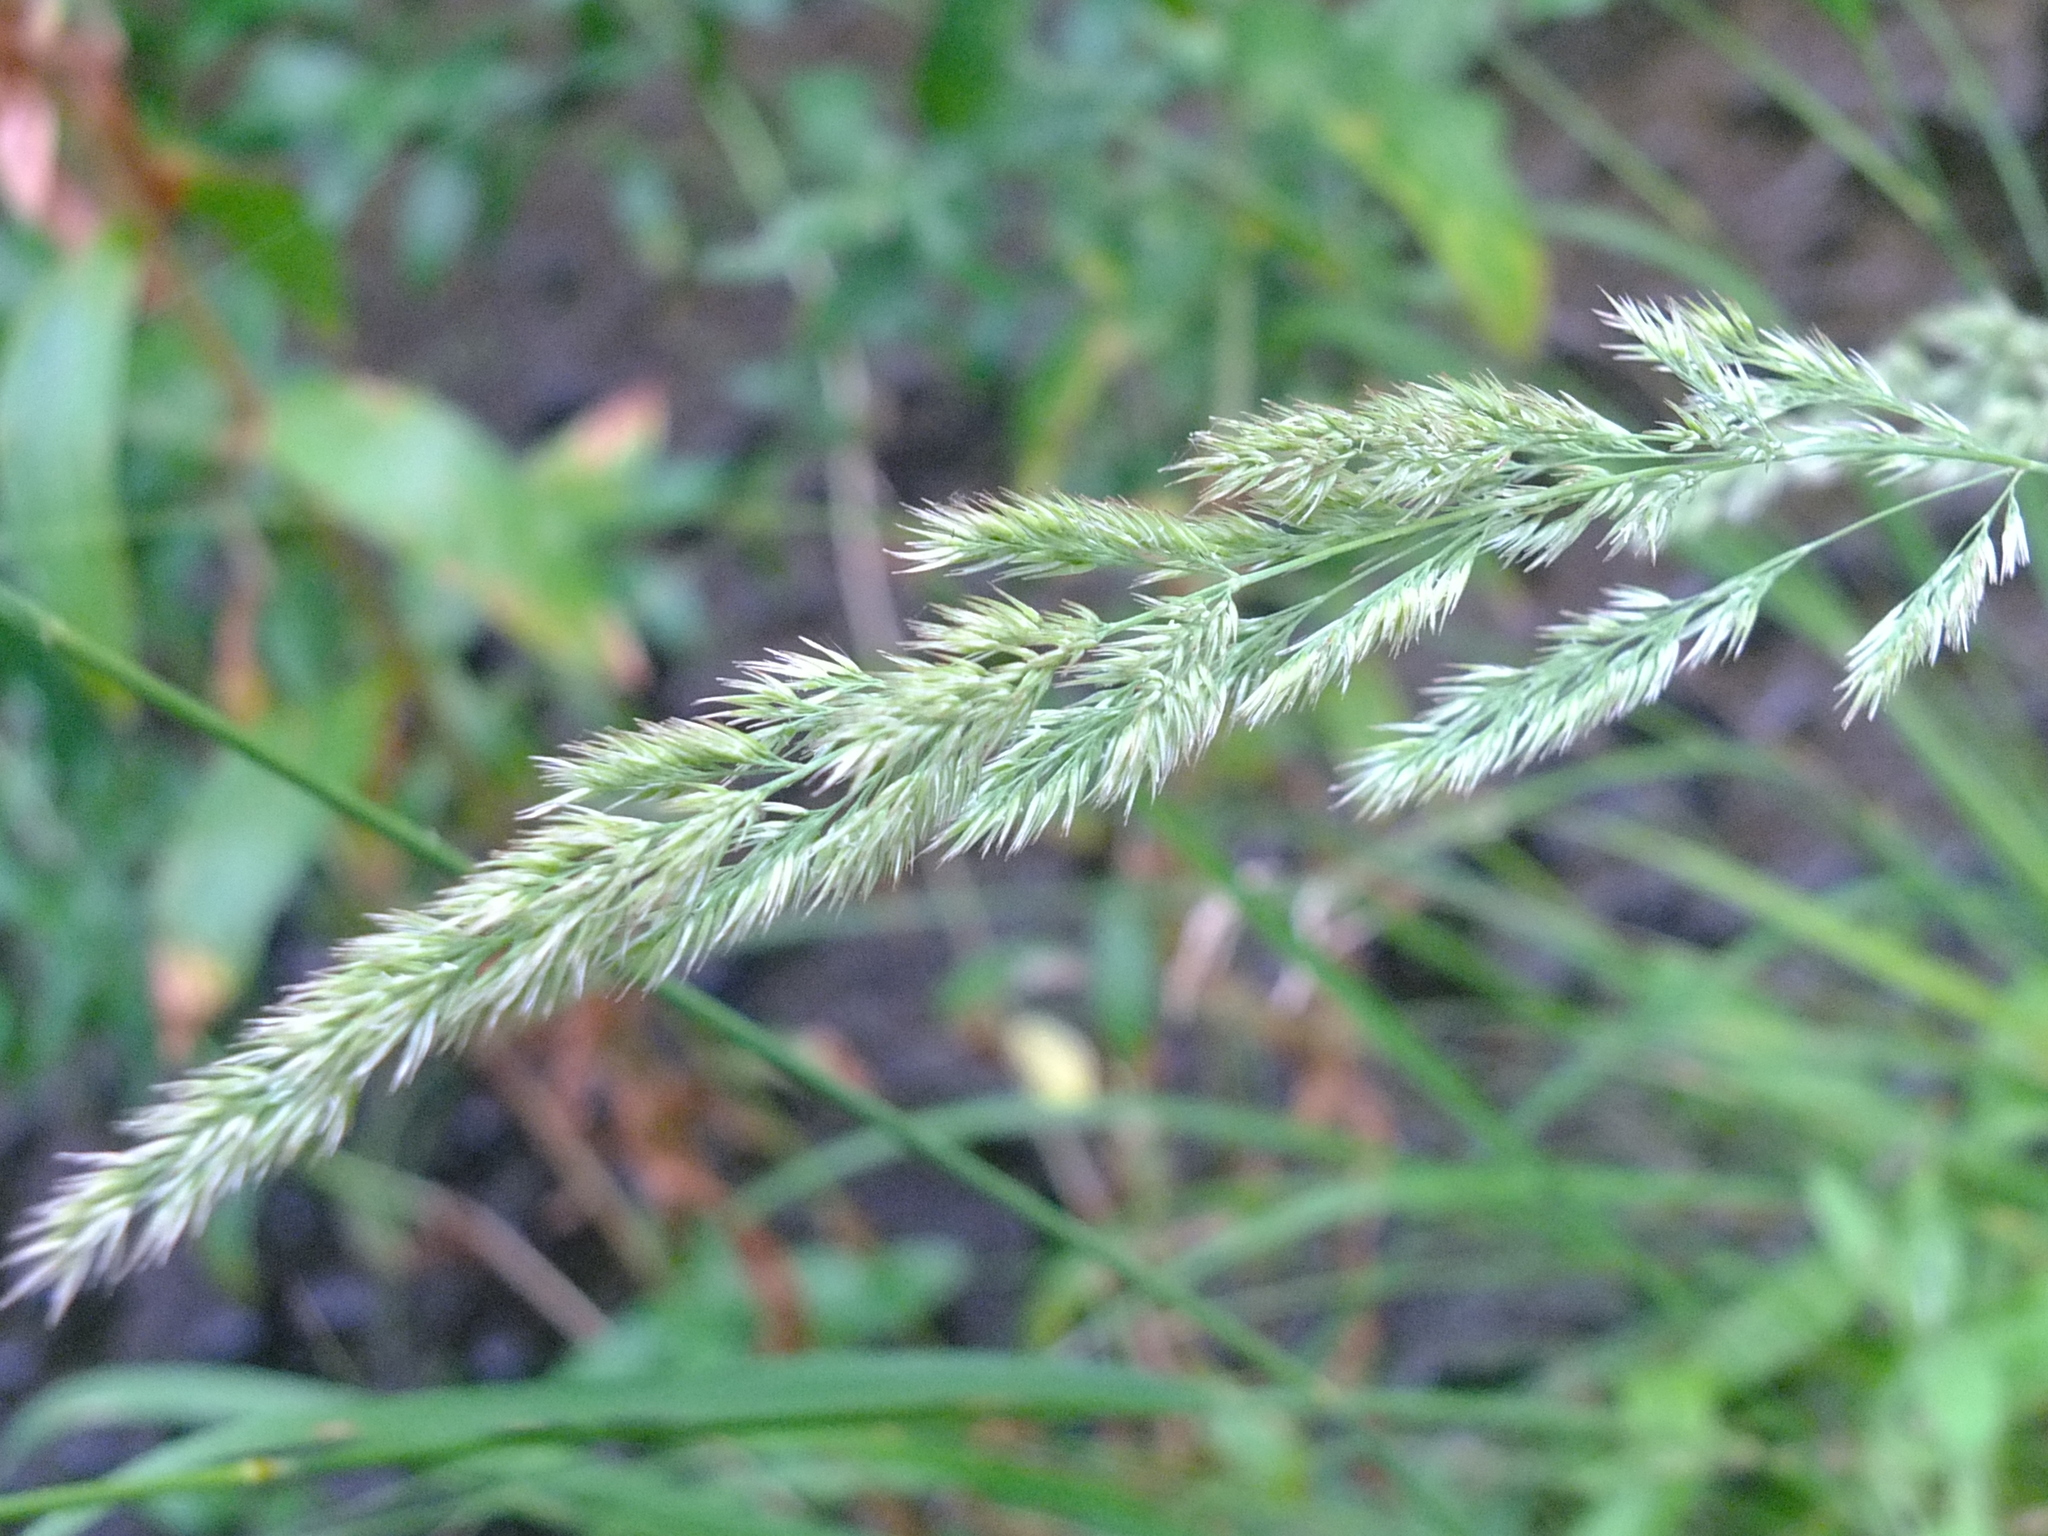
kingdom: Plantae
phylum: Tracheophyta
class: Liliopsida
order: Poales
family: Poaceae
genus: Calamagrostis
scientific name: Calamagrostis epigejos
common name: Wood small-reed
